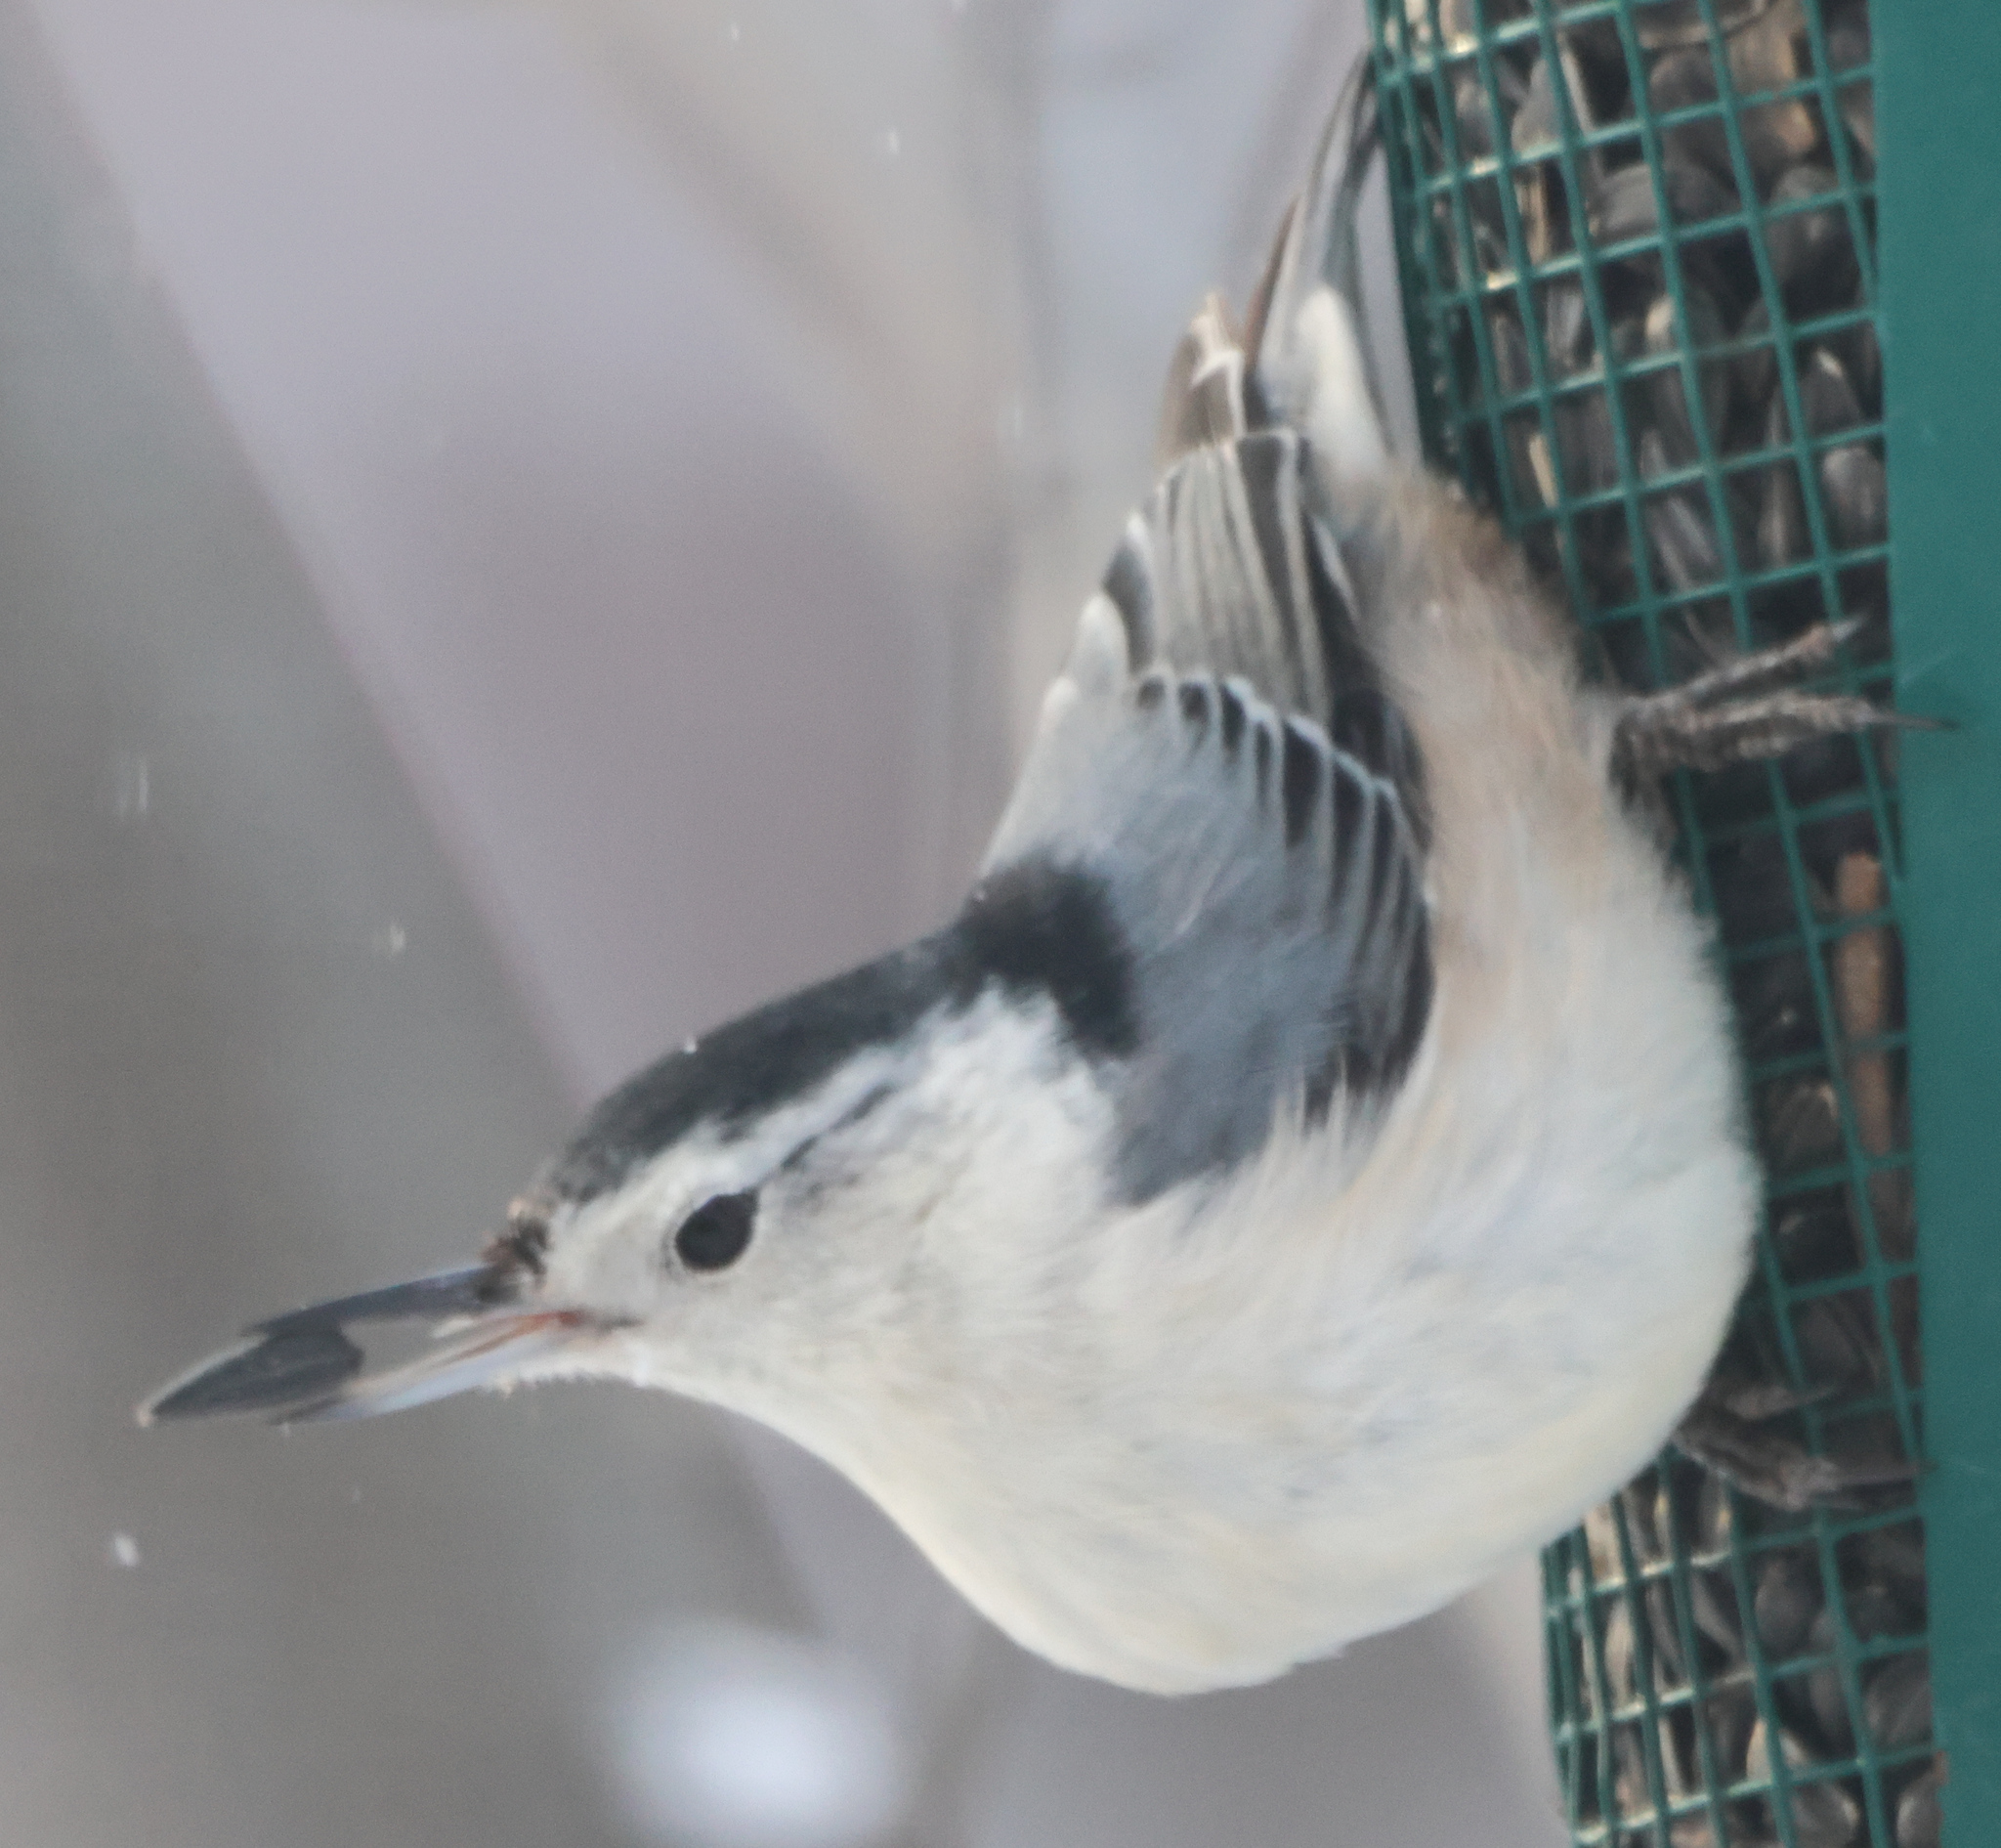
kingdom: Animalia
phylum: Chordata
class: Aves
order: Passeriformes
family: Sittidae
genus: Sitta
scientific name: Sitta carolinensis
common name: White-breasted nuthatch
